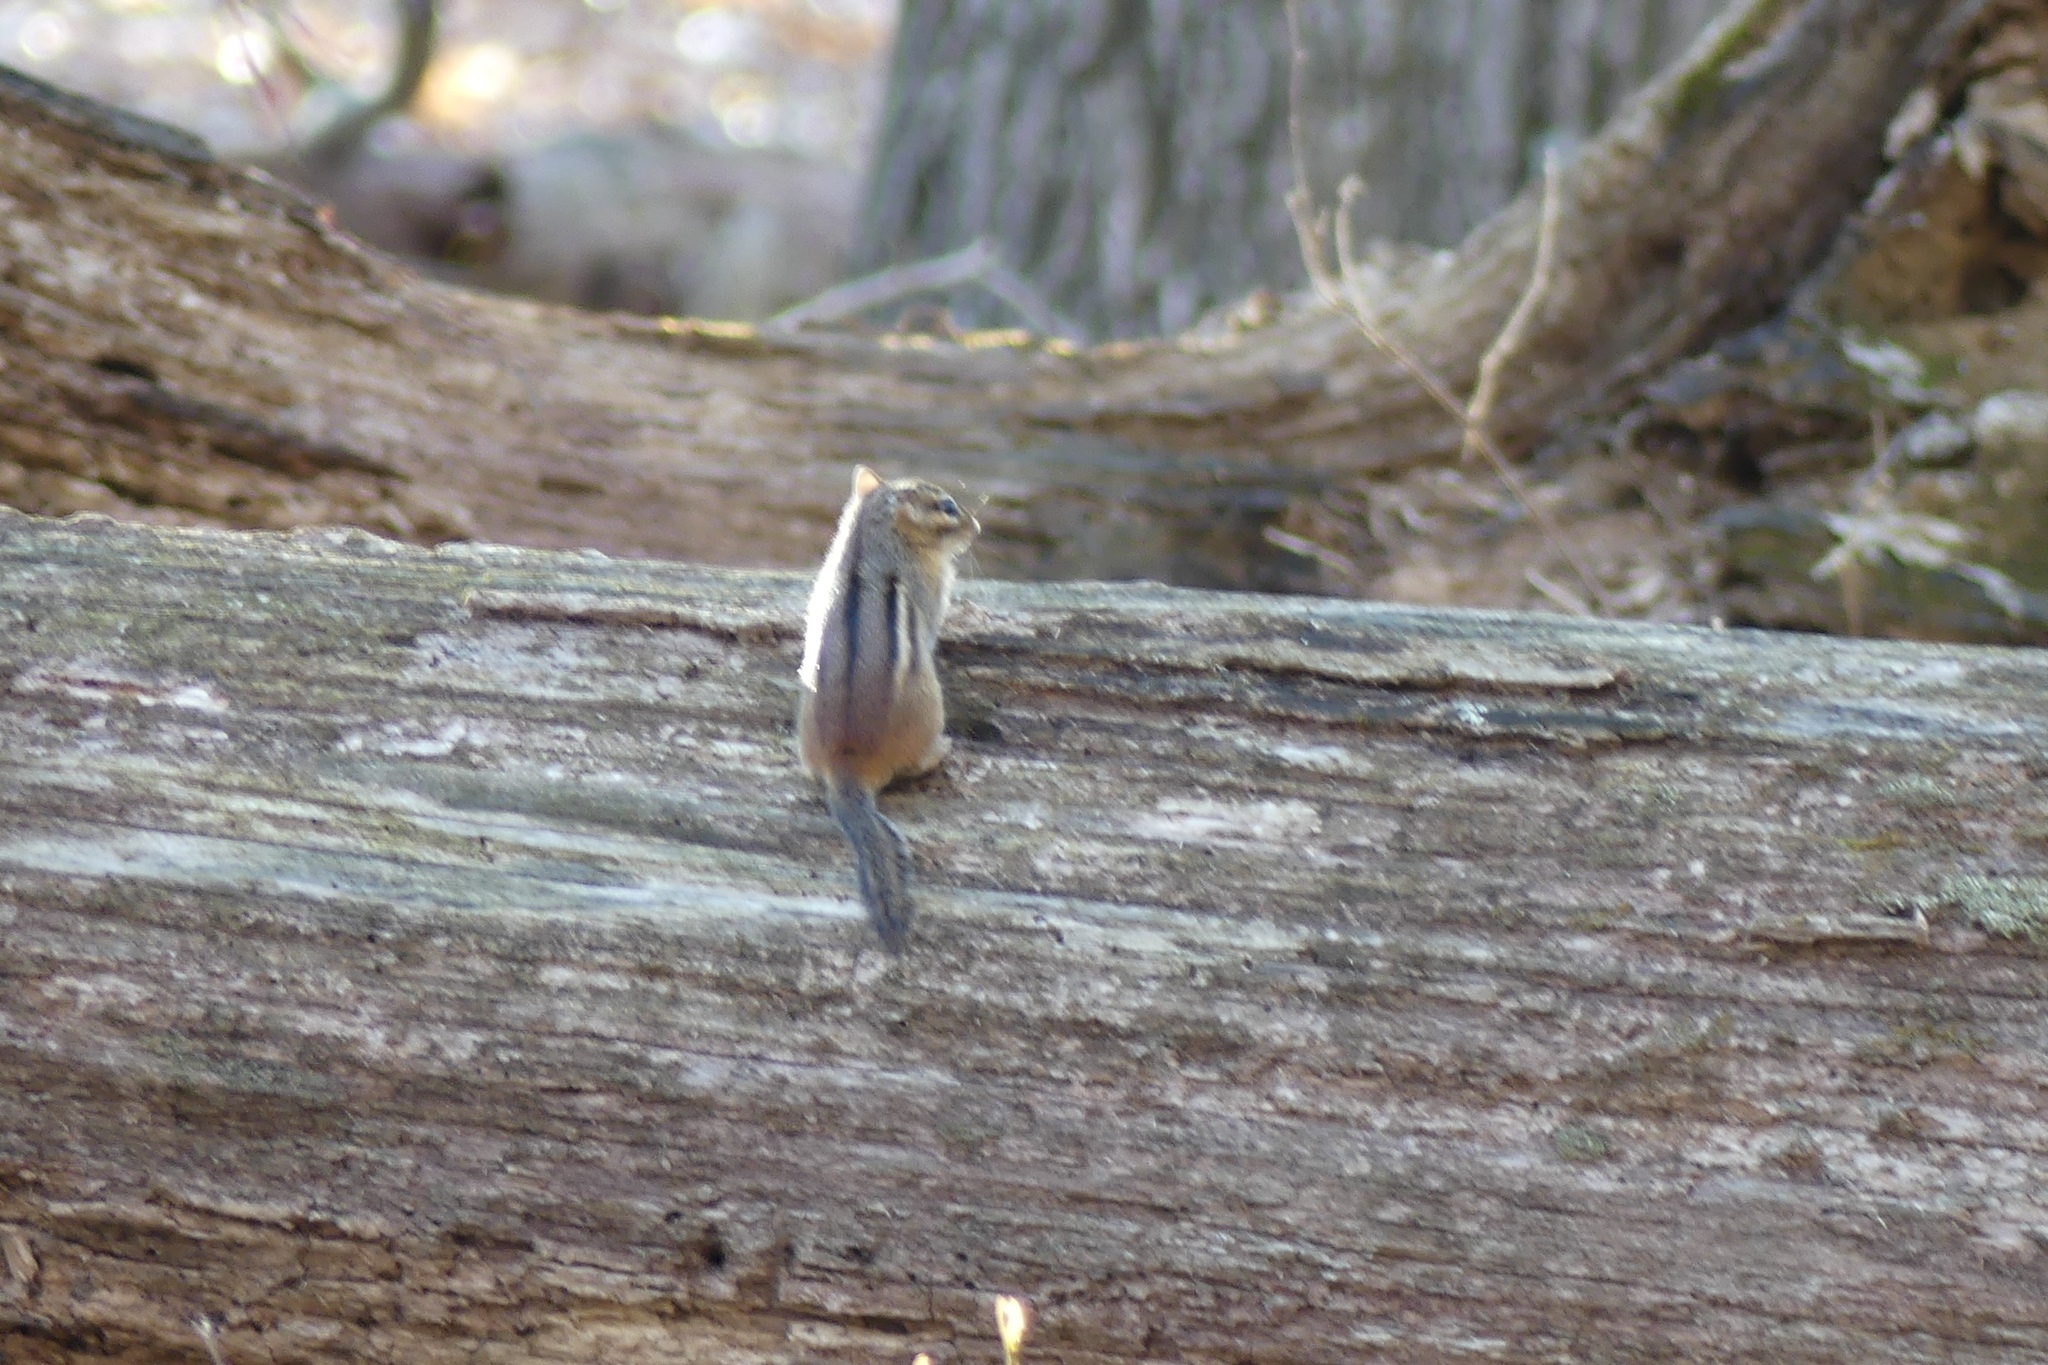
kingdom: Animalia
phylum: Chordata
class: Mammalia
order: Rodentia
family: Sciuridae
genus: Tamias
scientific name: Tamias striatus
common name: Eastern chipmunk
